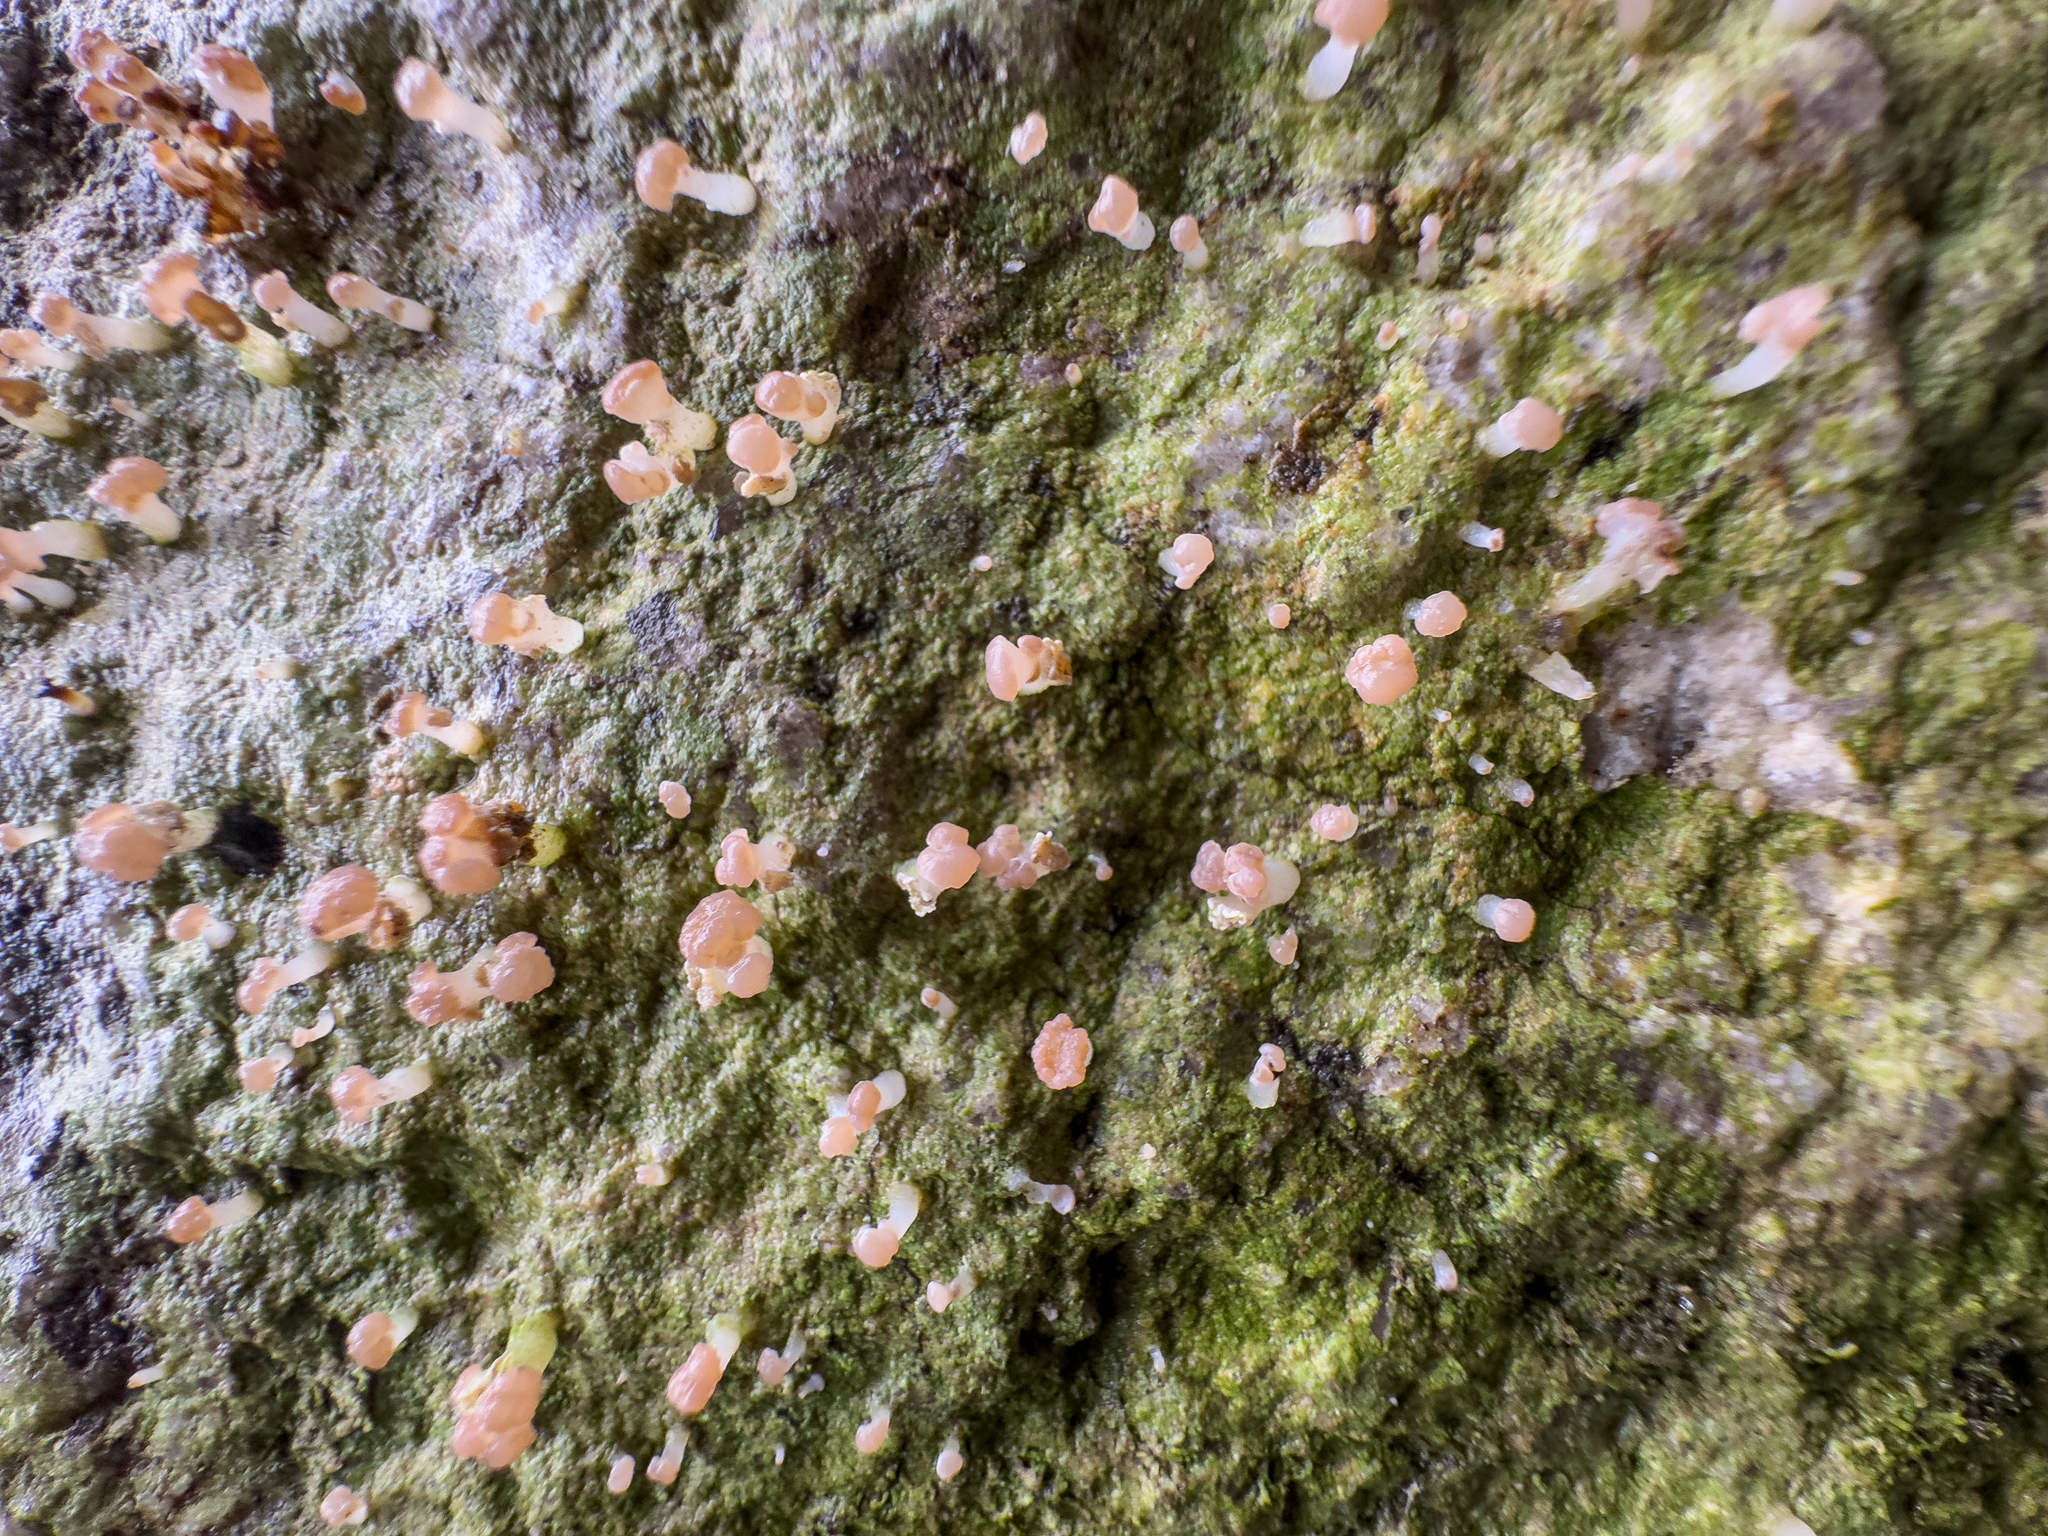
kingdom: Fungi
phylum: Ascomycota
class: Lecanoromycetes
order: Baeomycetales
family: Baeomycetaceae
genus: Baeomyces
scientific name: Baeomyces heteromorphus
